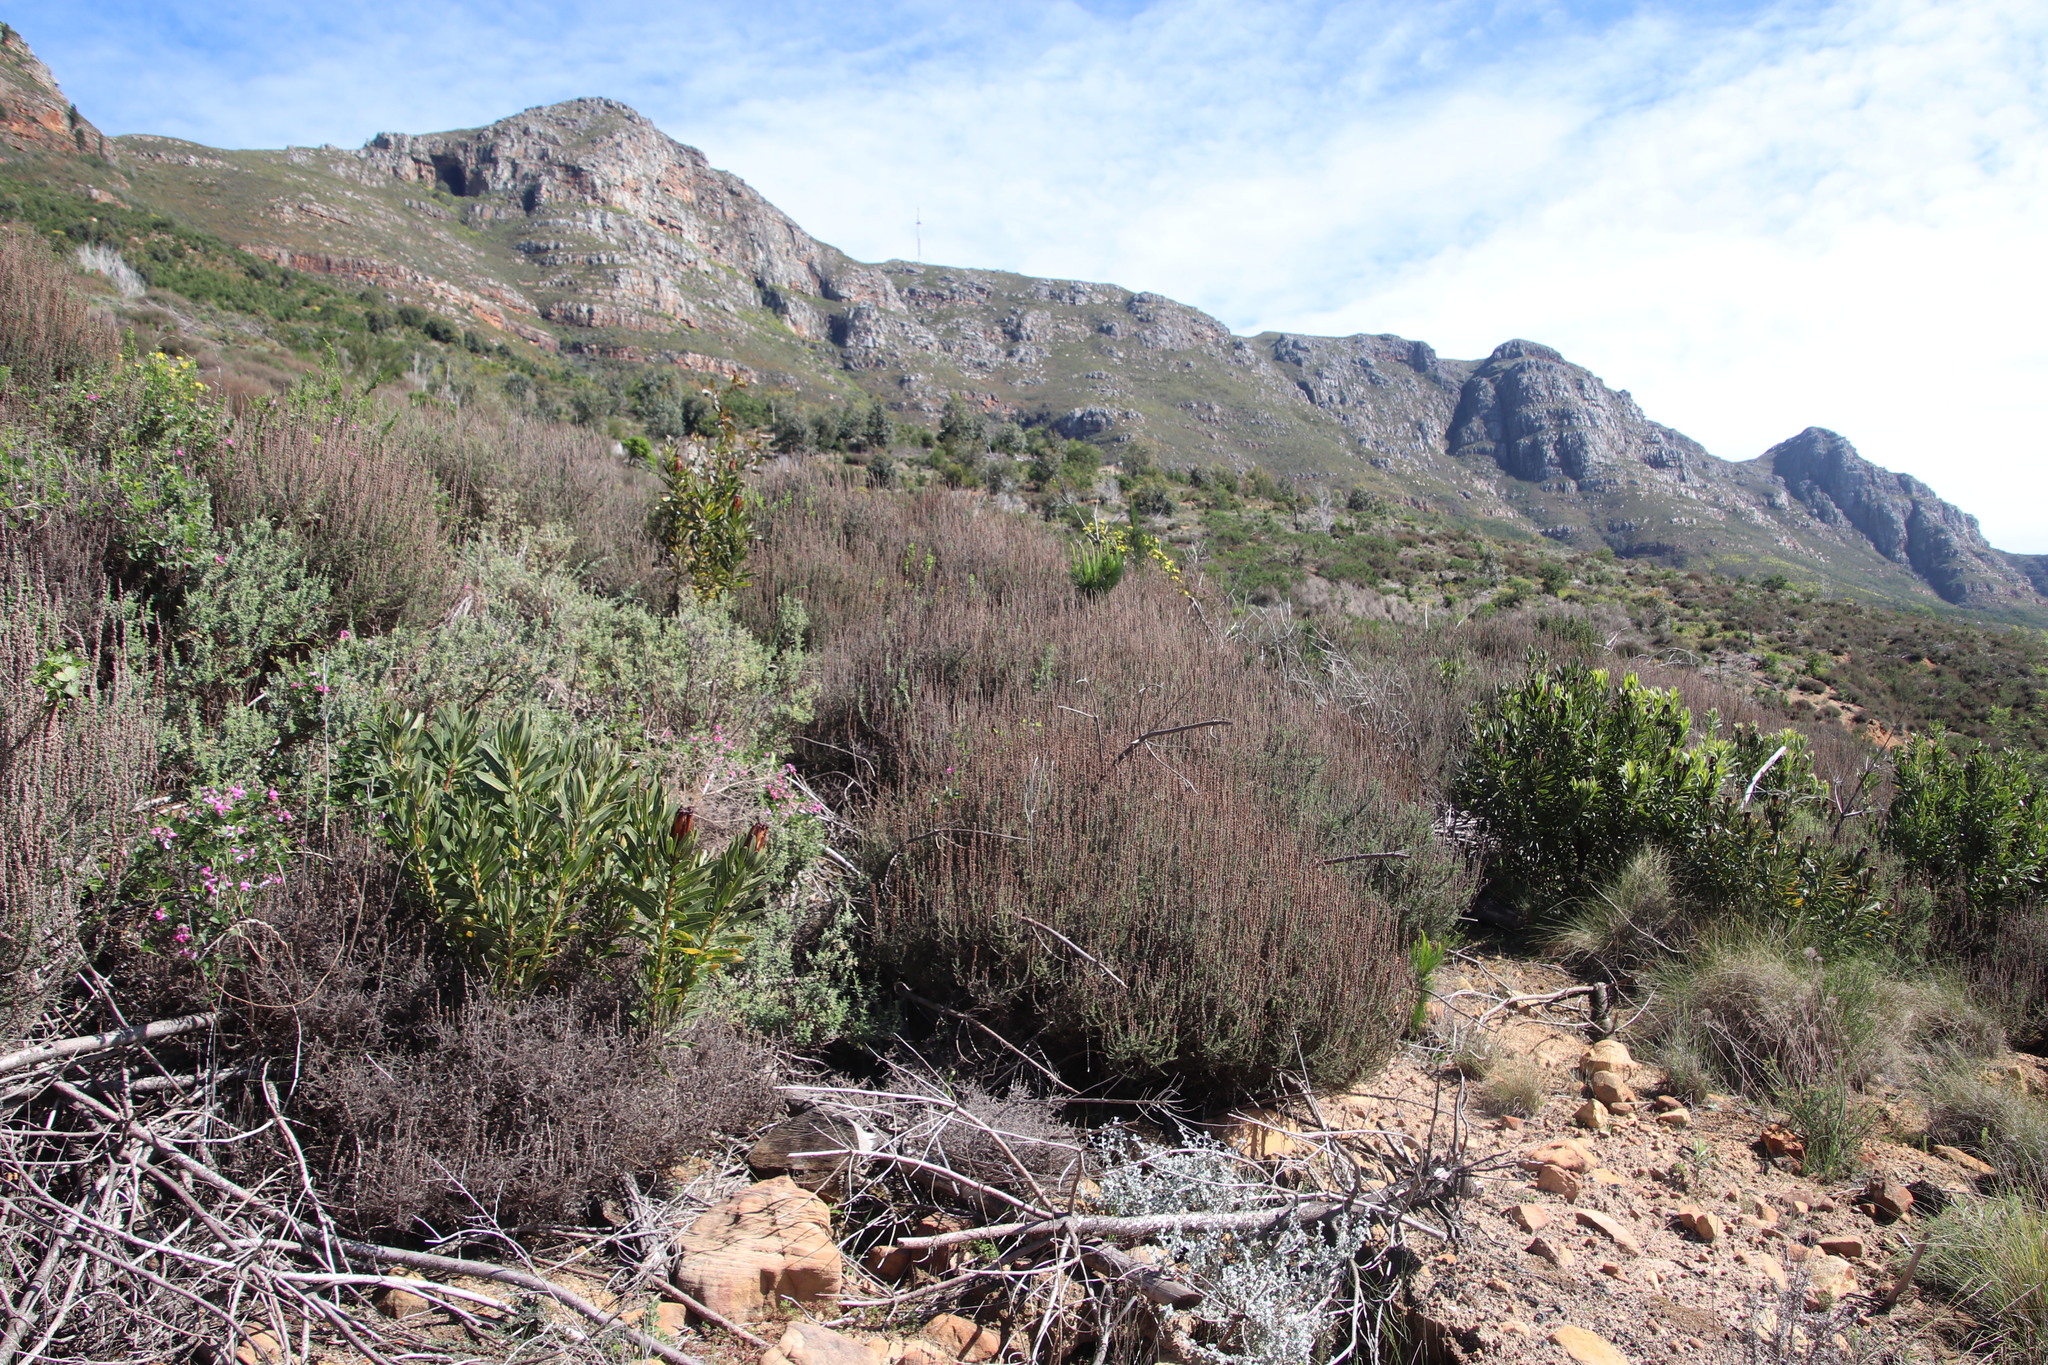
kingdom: Plantae
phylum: Tracheophyta
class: Magnoliopsida
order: Asterales
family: Asteraceae
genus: Seriphium
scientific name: Seriphium cinereum
